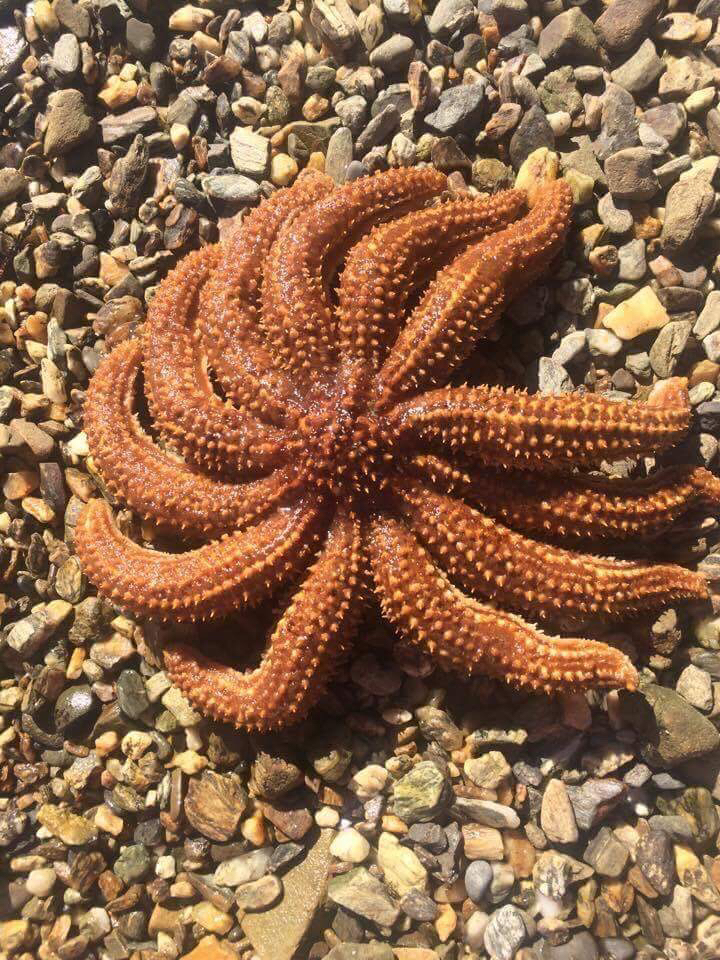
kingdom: Animalia
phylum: Echinodermata
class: Asteroidea
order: Forcipulatida
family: Asteriidae
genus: Coscinasterias
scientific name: Coscinasterias muricata
